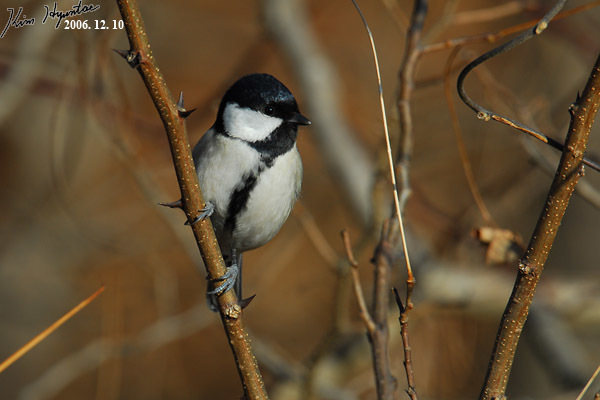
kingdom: Animalia
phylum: Chordata
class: Aves
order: Passeriformes
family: Paridae
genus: Parus
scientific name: Parus minor
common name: Japanese tit
